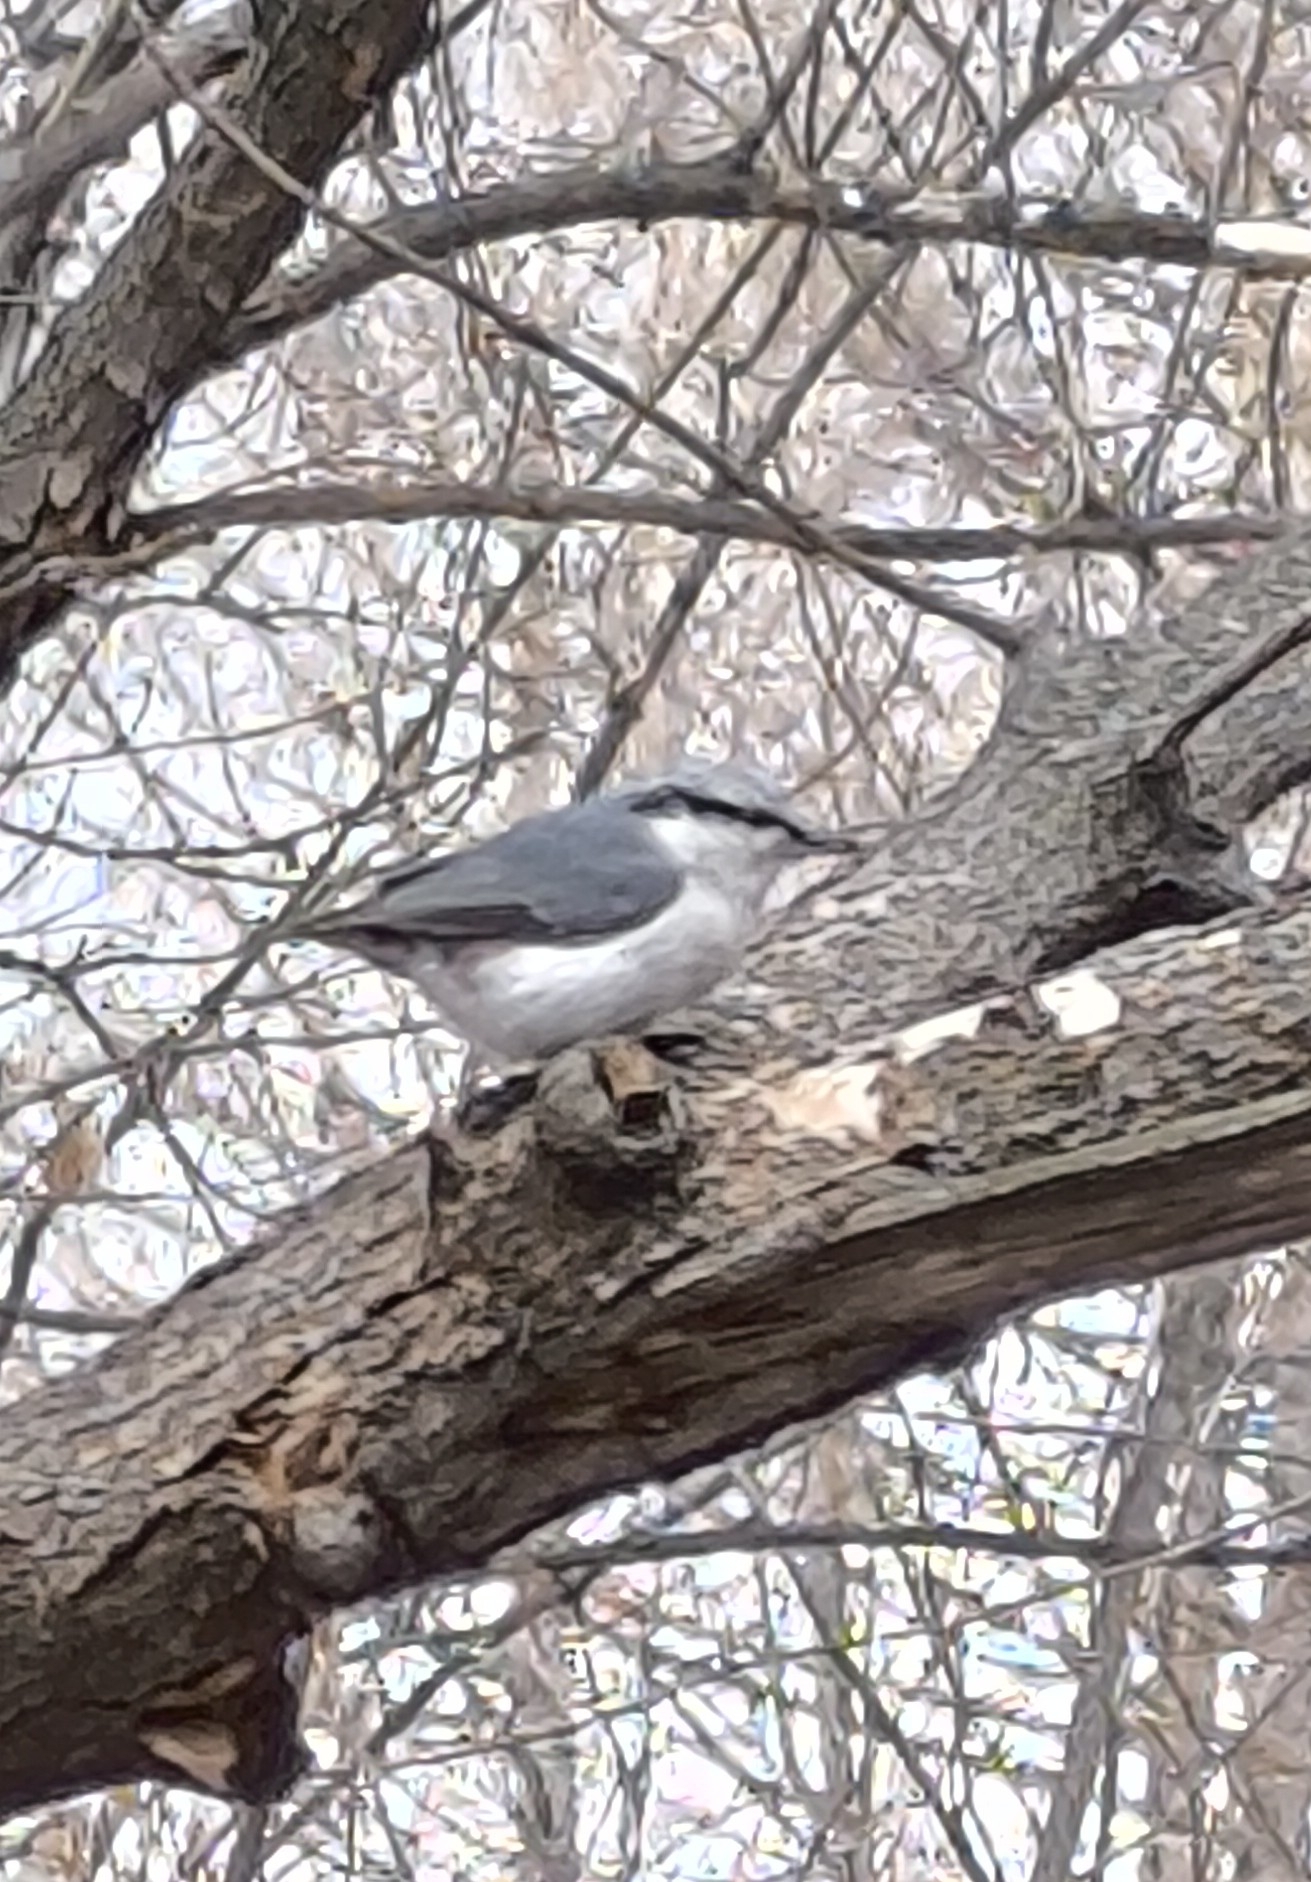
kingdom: Animalia
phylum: Chordata
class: Aves
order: Passeriformes
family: Sittidae
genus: Sitta
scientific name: Sitta europaea
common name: Eurasian nuthatch
